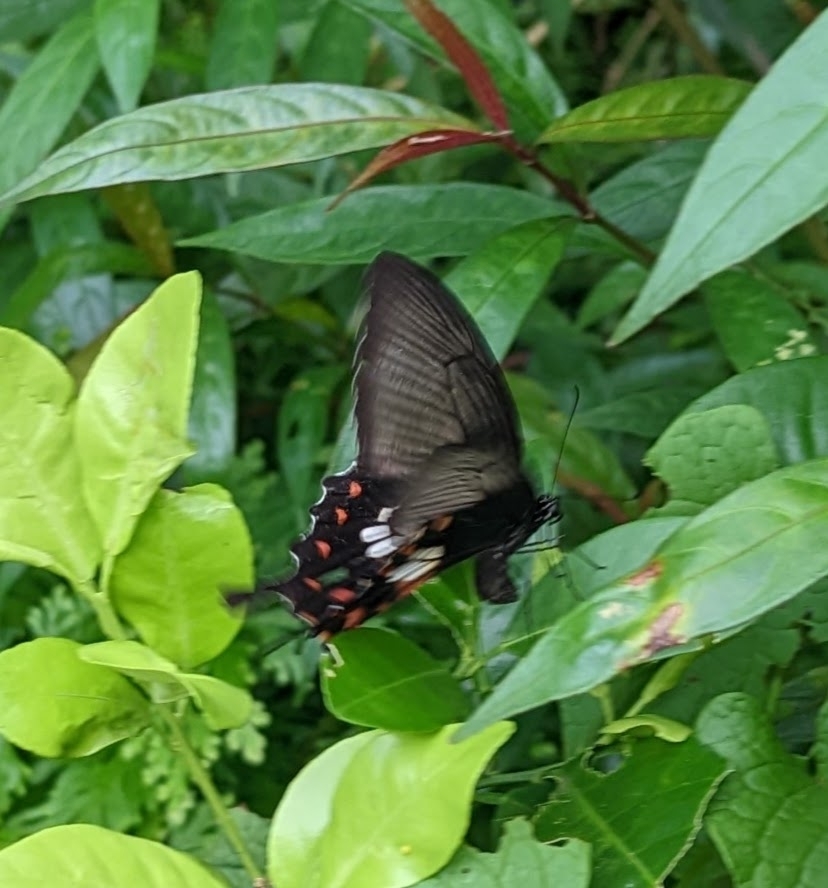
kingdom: Animalia
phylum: Arthropoda
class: Insecta
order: Lepidoptera
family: Papilionidae
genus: Papilio
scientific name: Papilio polytes
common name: Common mormon
